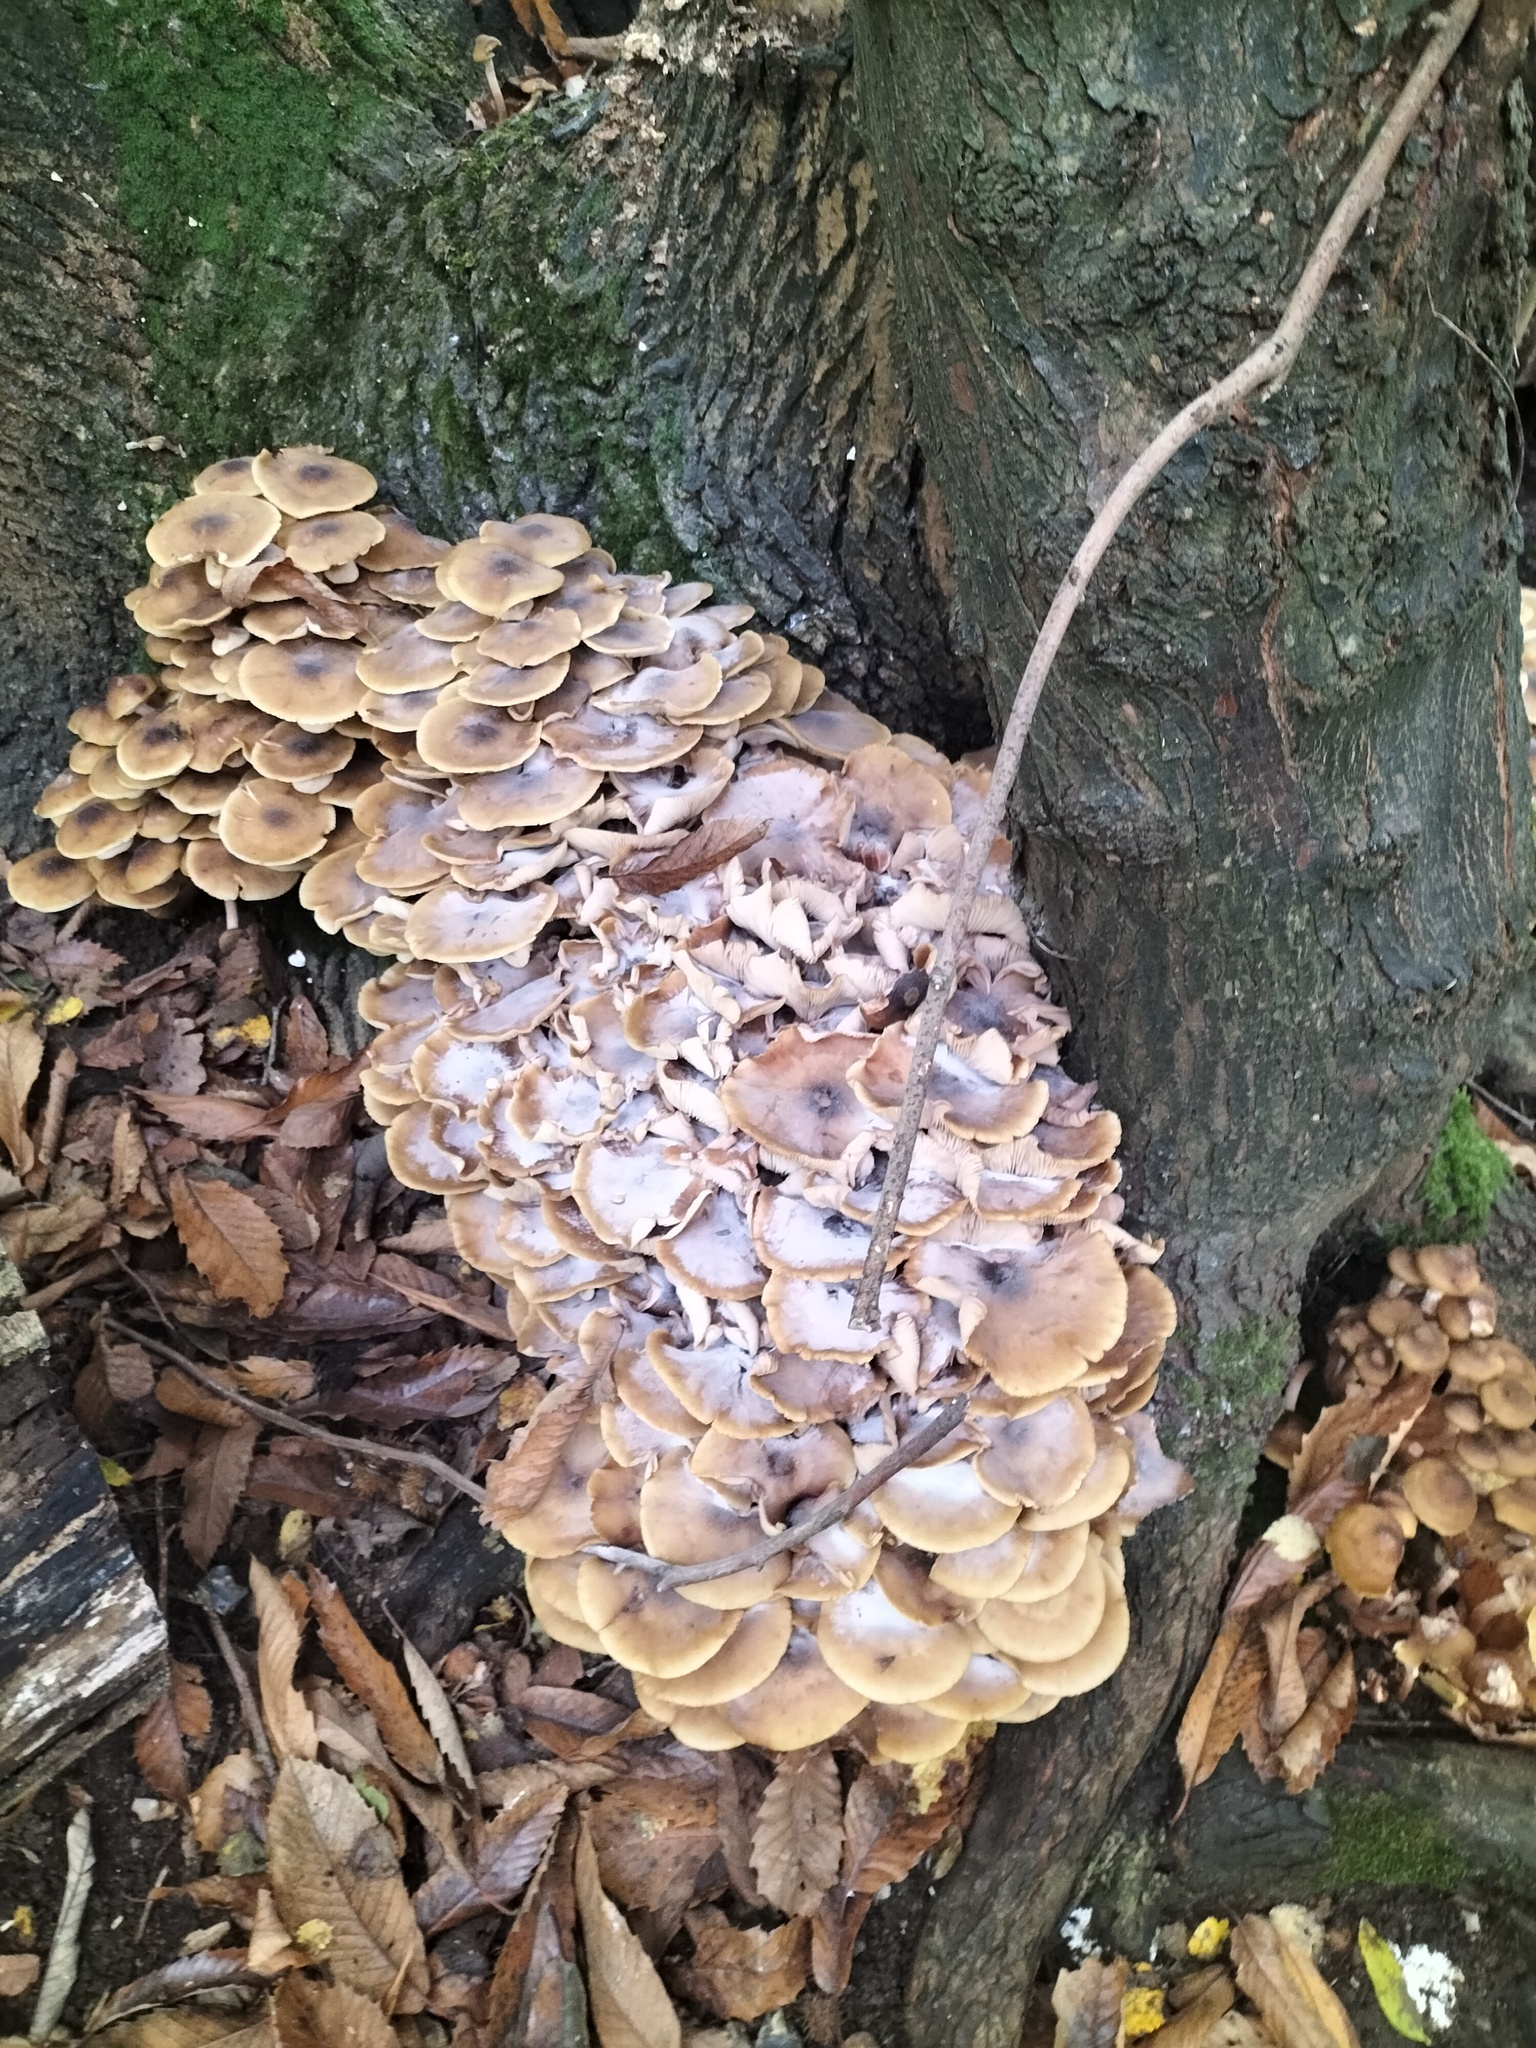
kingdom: Fungi
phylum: Basidiomycota
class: Agaricomycetes
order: Agaricales
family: Physalacriaceae
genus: Armillaria
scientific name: Armillaria mellea
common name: Honey fungus
